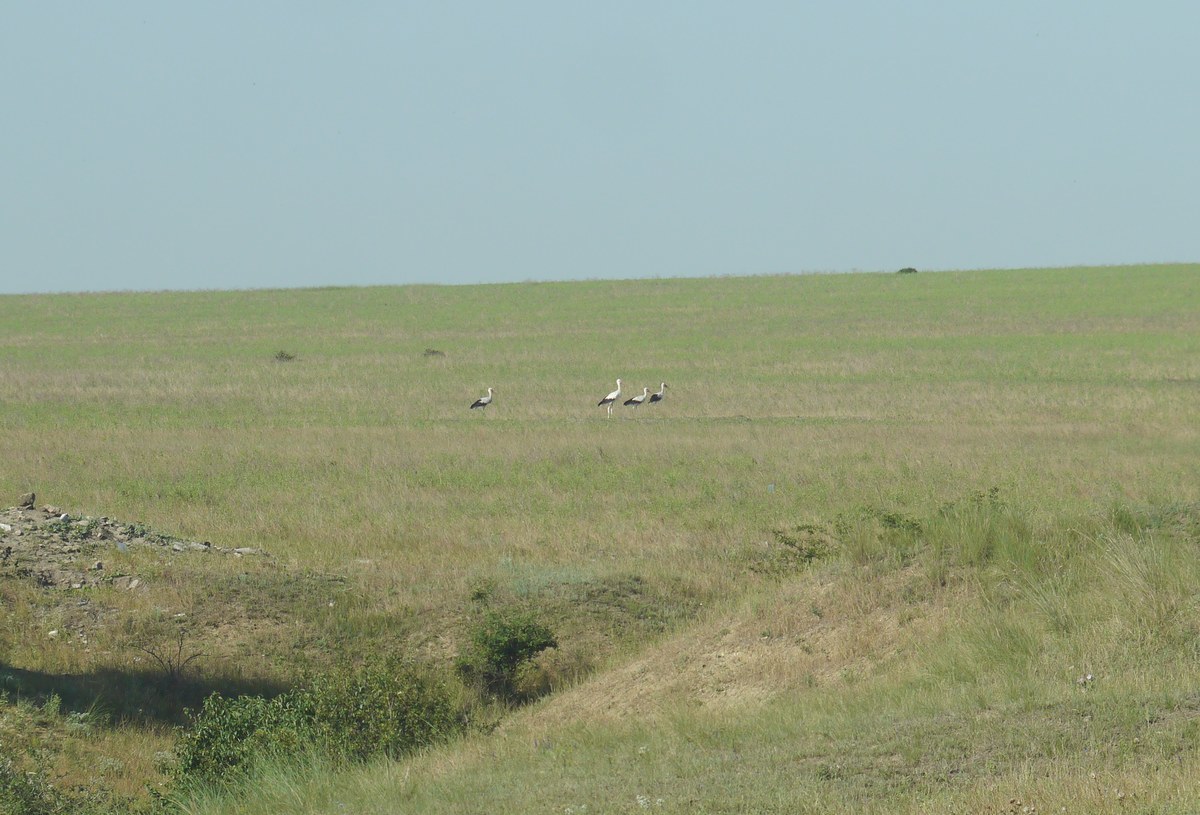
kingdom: Animalia
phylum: Chordata
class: Aves
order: Ciconiiformes
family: Ciconiidae
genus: Ciconia
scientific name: Ciconia ciconia
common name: White stork
